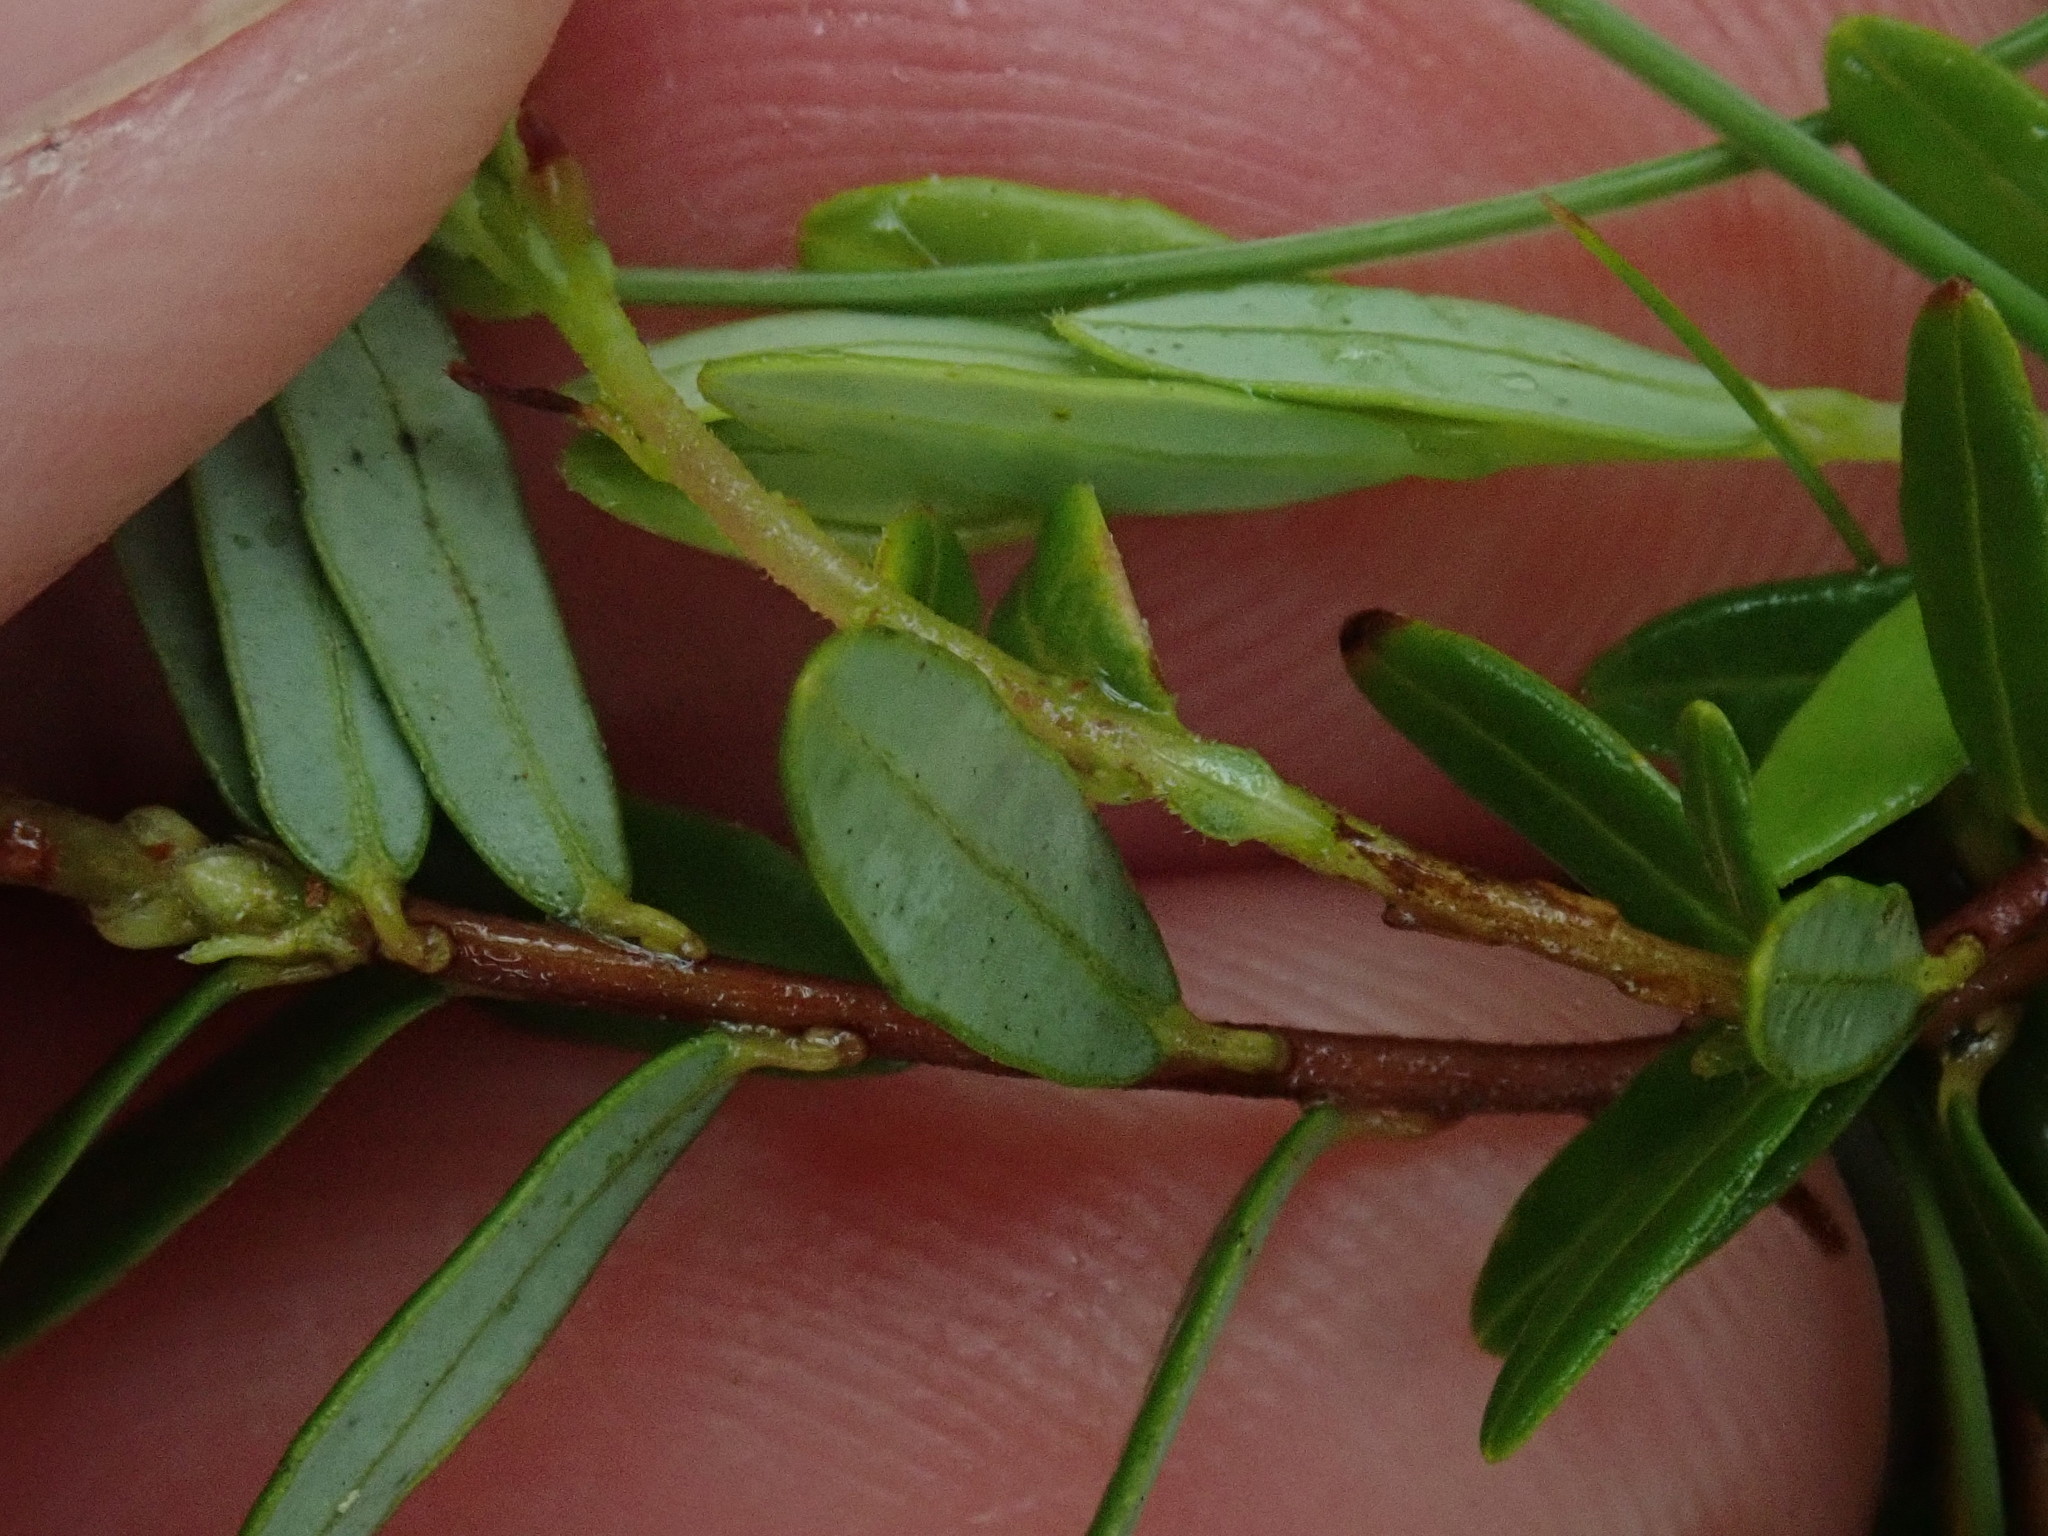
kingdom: Plantae
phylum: Tracheophyta
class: Magnoliopsida
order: Ericales
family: Ericaceae
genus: Vaccinium
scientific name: Vaccinium macrocarpon
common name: American cranberry
